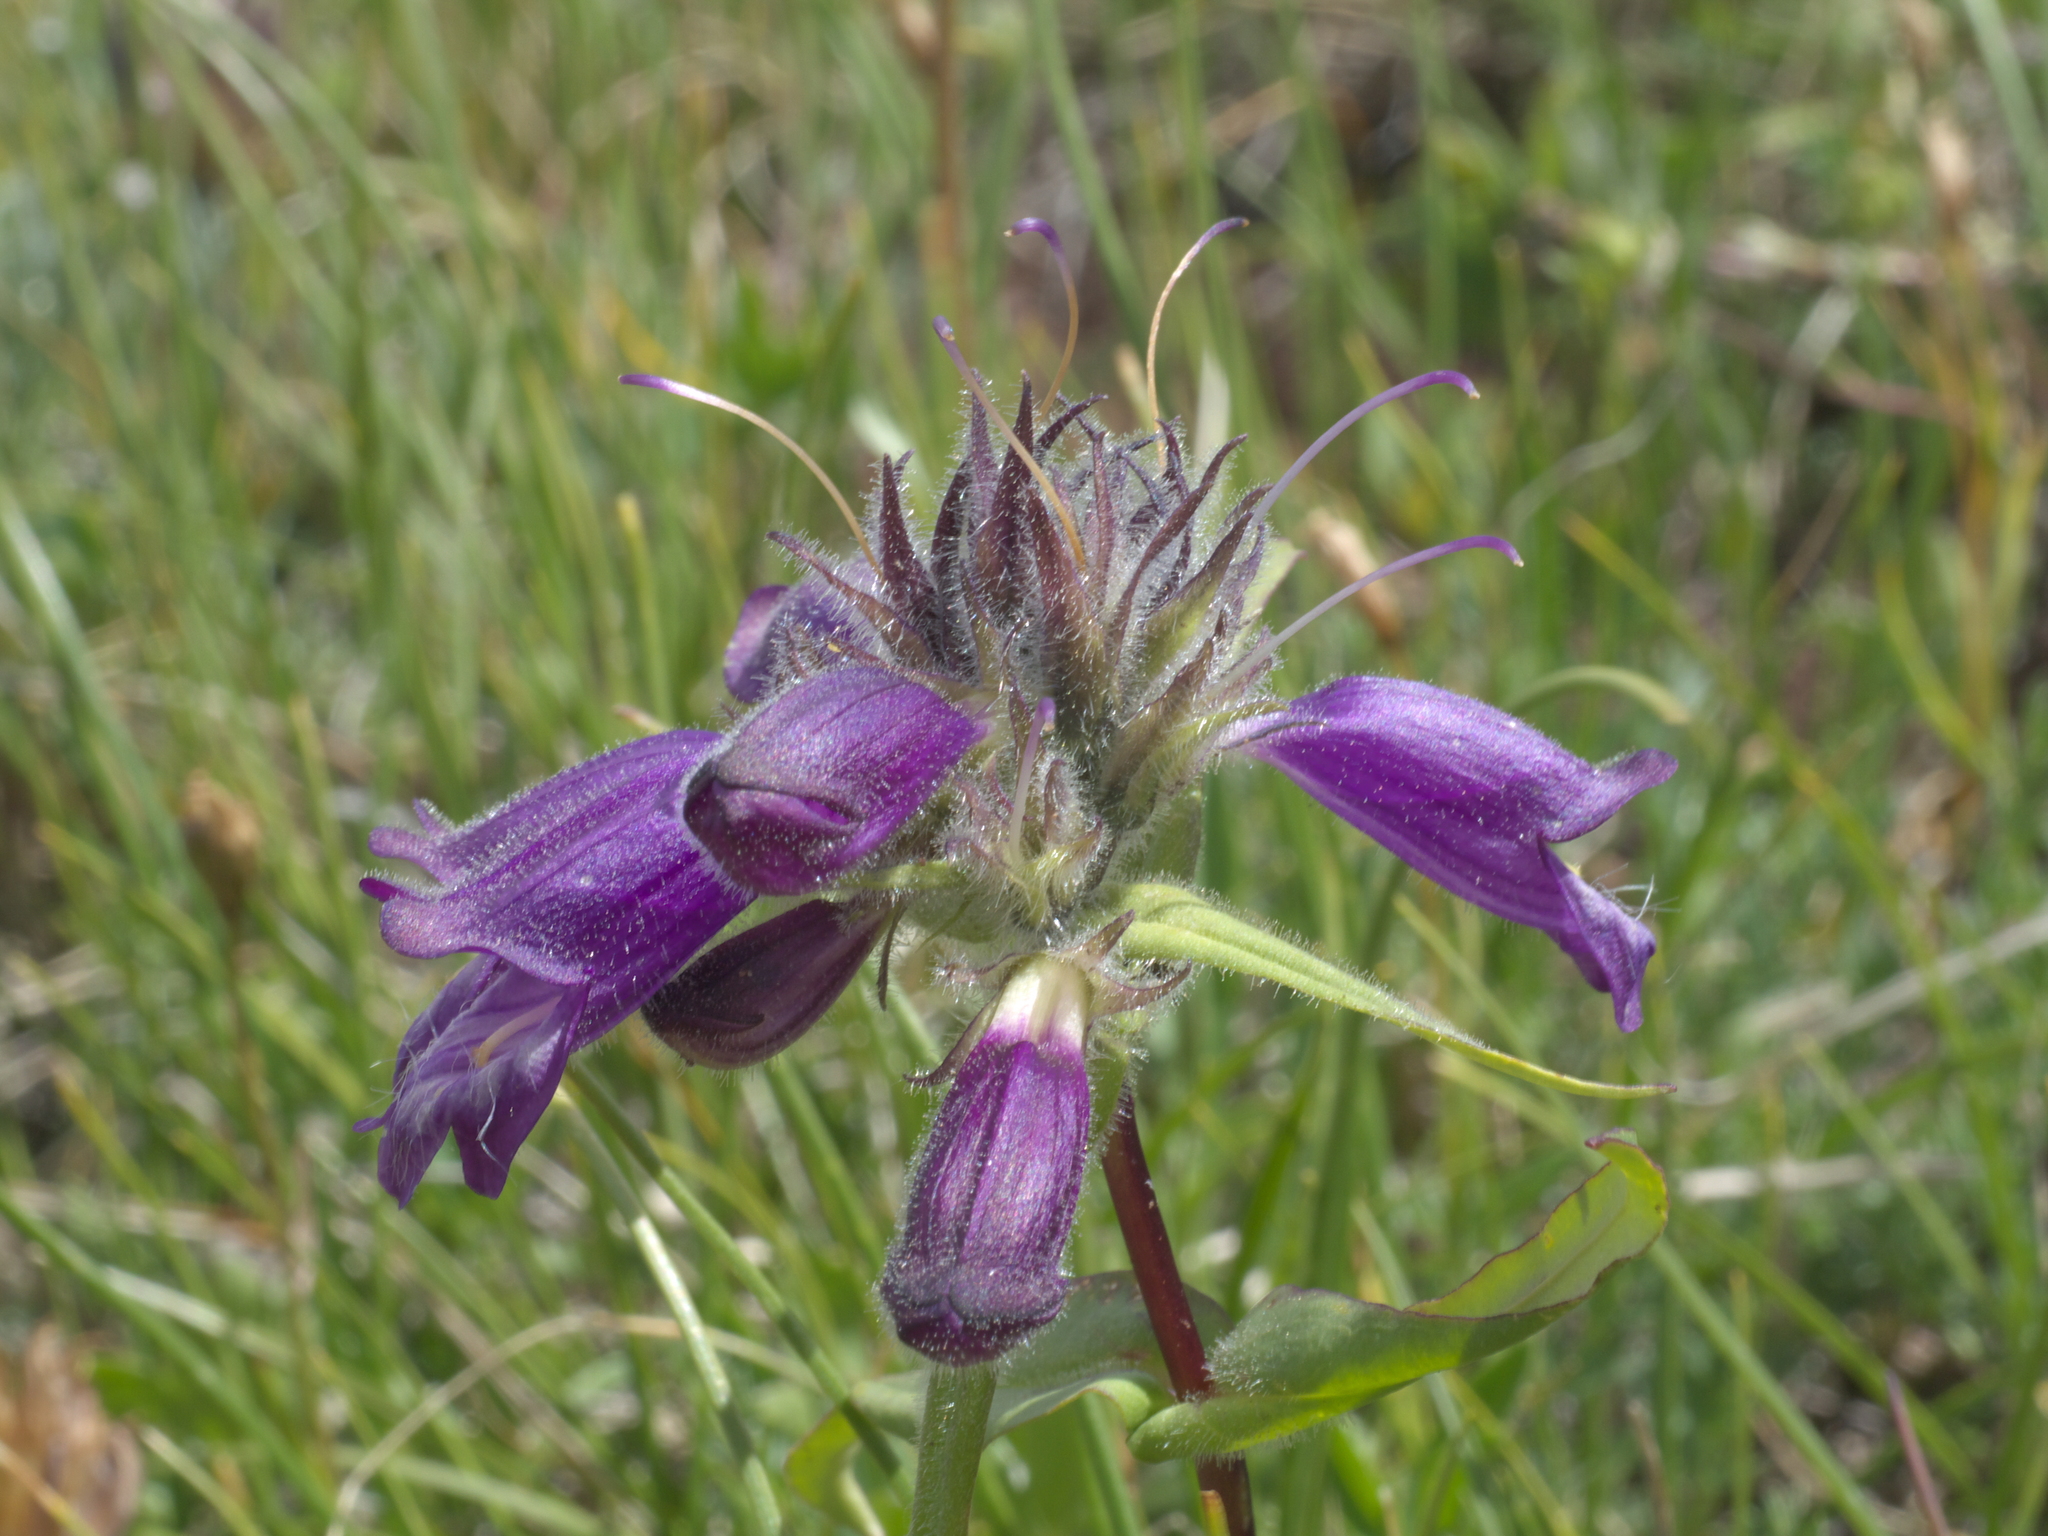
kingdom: Plantae
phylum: Tracheophyta
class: Magnoliopsida
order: Lamiales
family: Plantaginaceae
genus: Penstemon
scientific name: Penstemon whippleanus
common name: Whipple's penstemon
